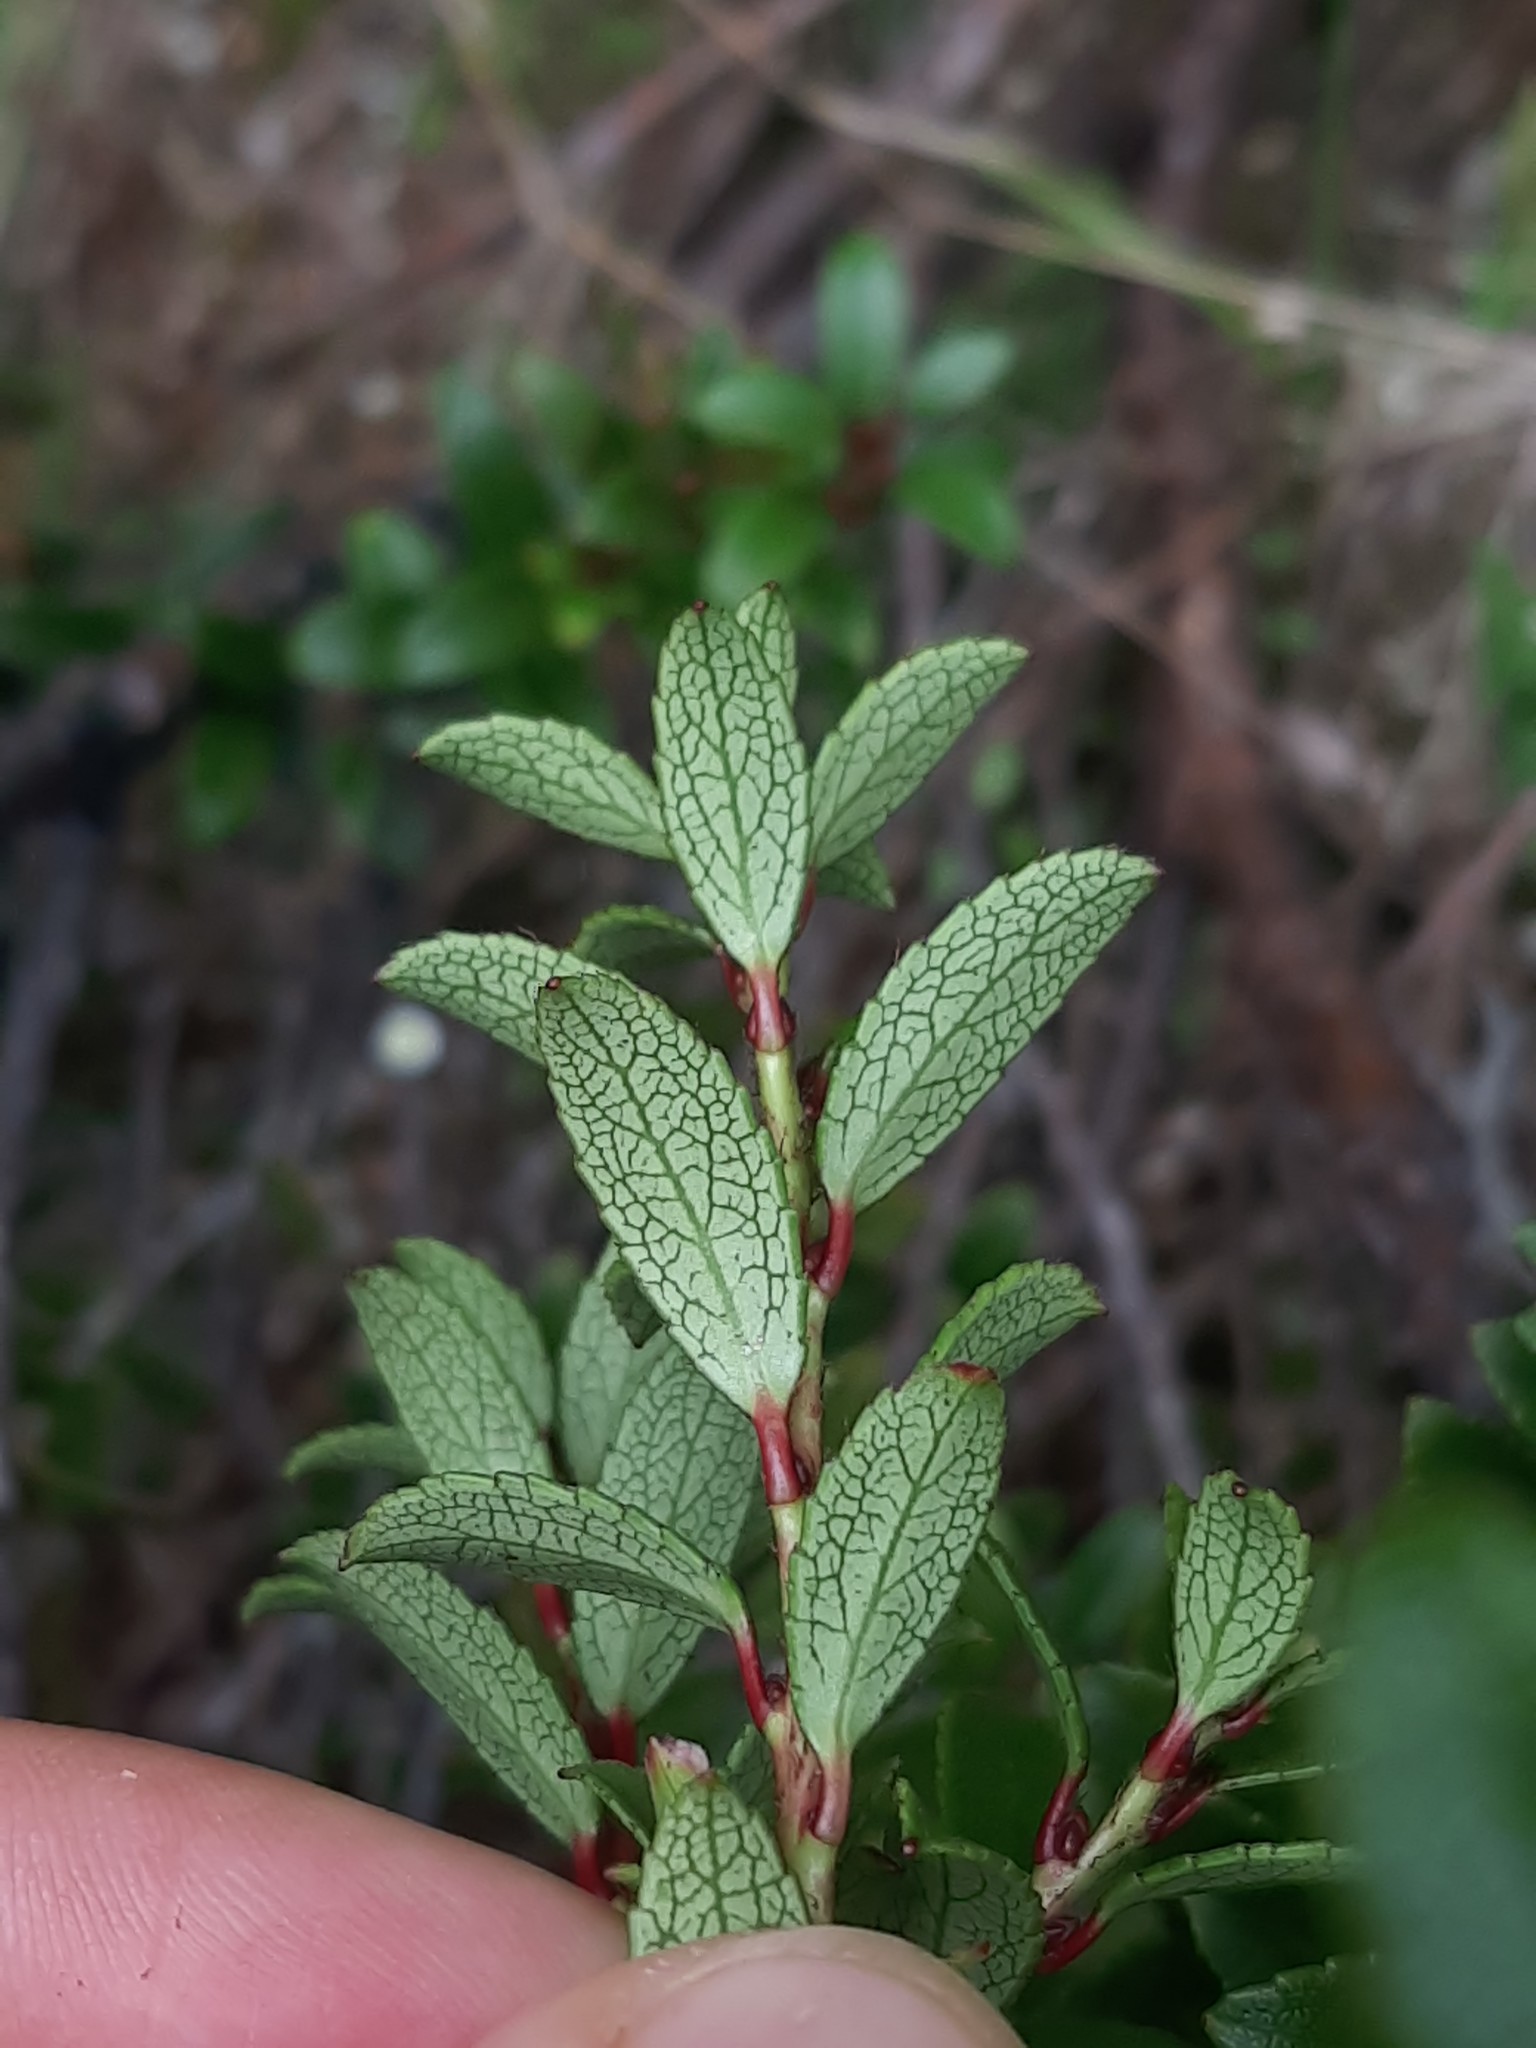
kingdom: Plantae
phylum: Tracheophyta
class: Magnoliopsida
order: Ericales
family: Ericaceae
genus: Gaultheria
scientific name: Gaultheria crassa
